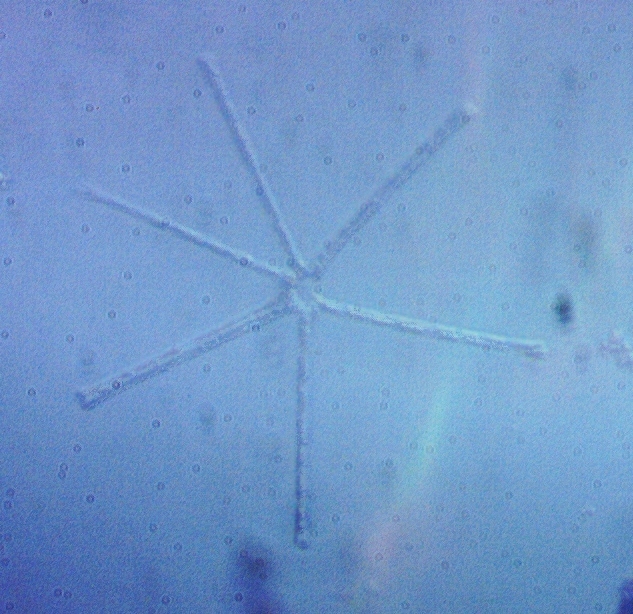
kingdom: Chromista
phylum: Ochrophyta
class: Bacillariophyceae
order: Fragilariales
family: Fragilariaceae
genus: Asterionella
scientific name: Asterionella formosa
